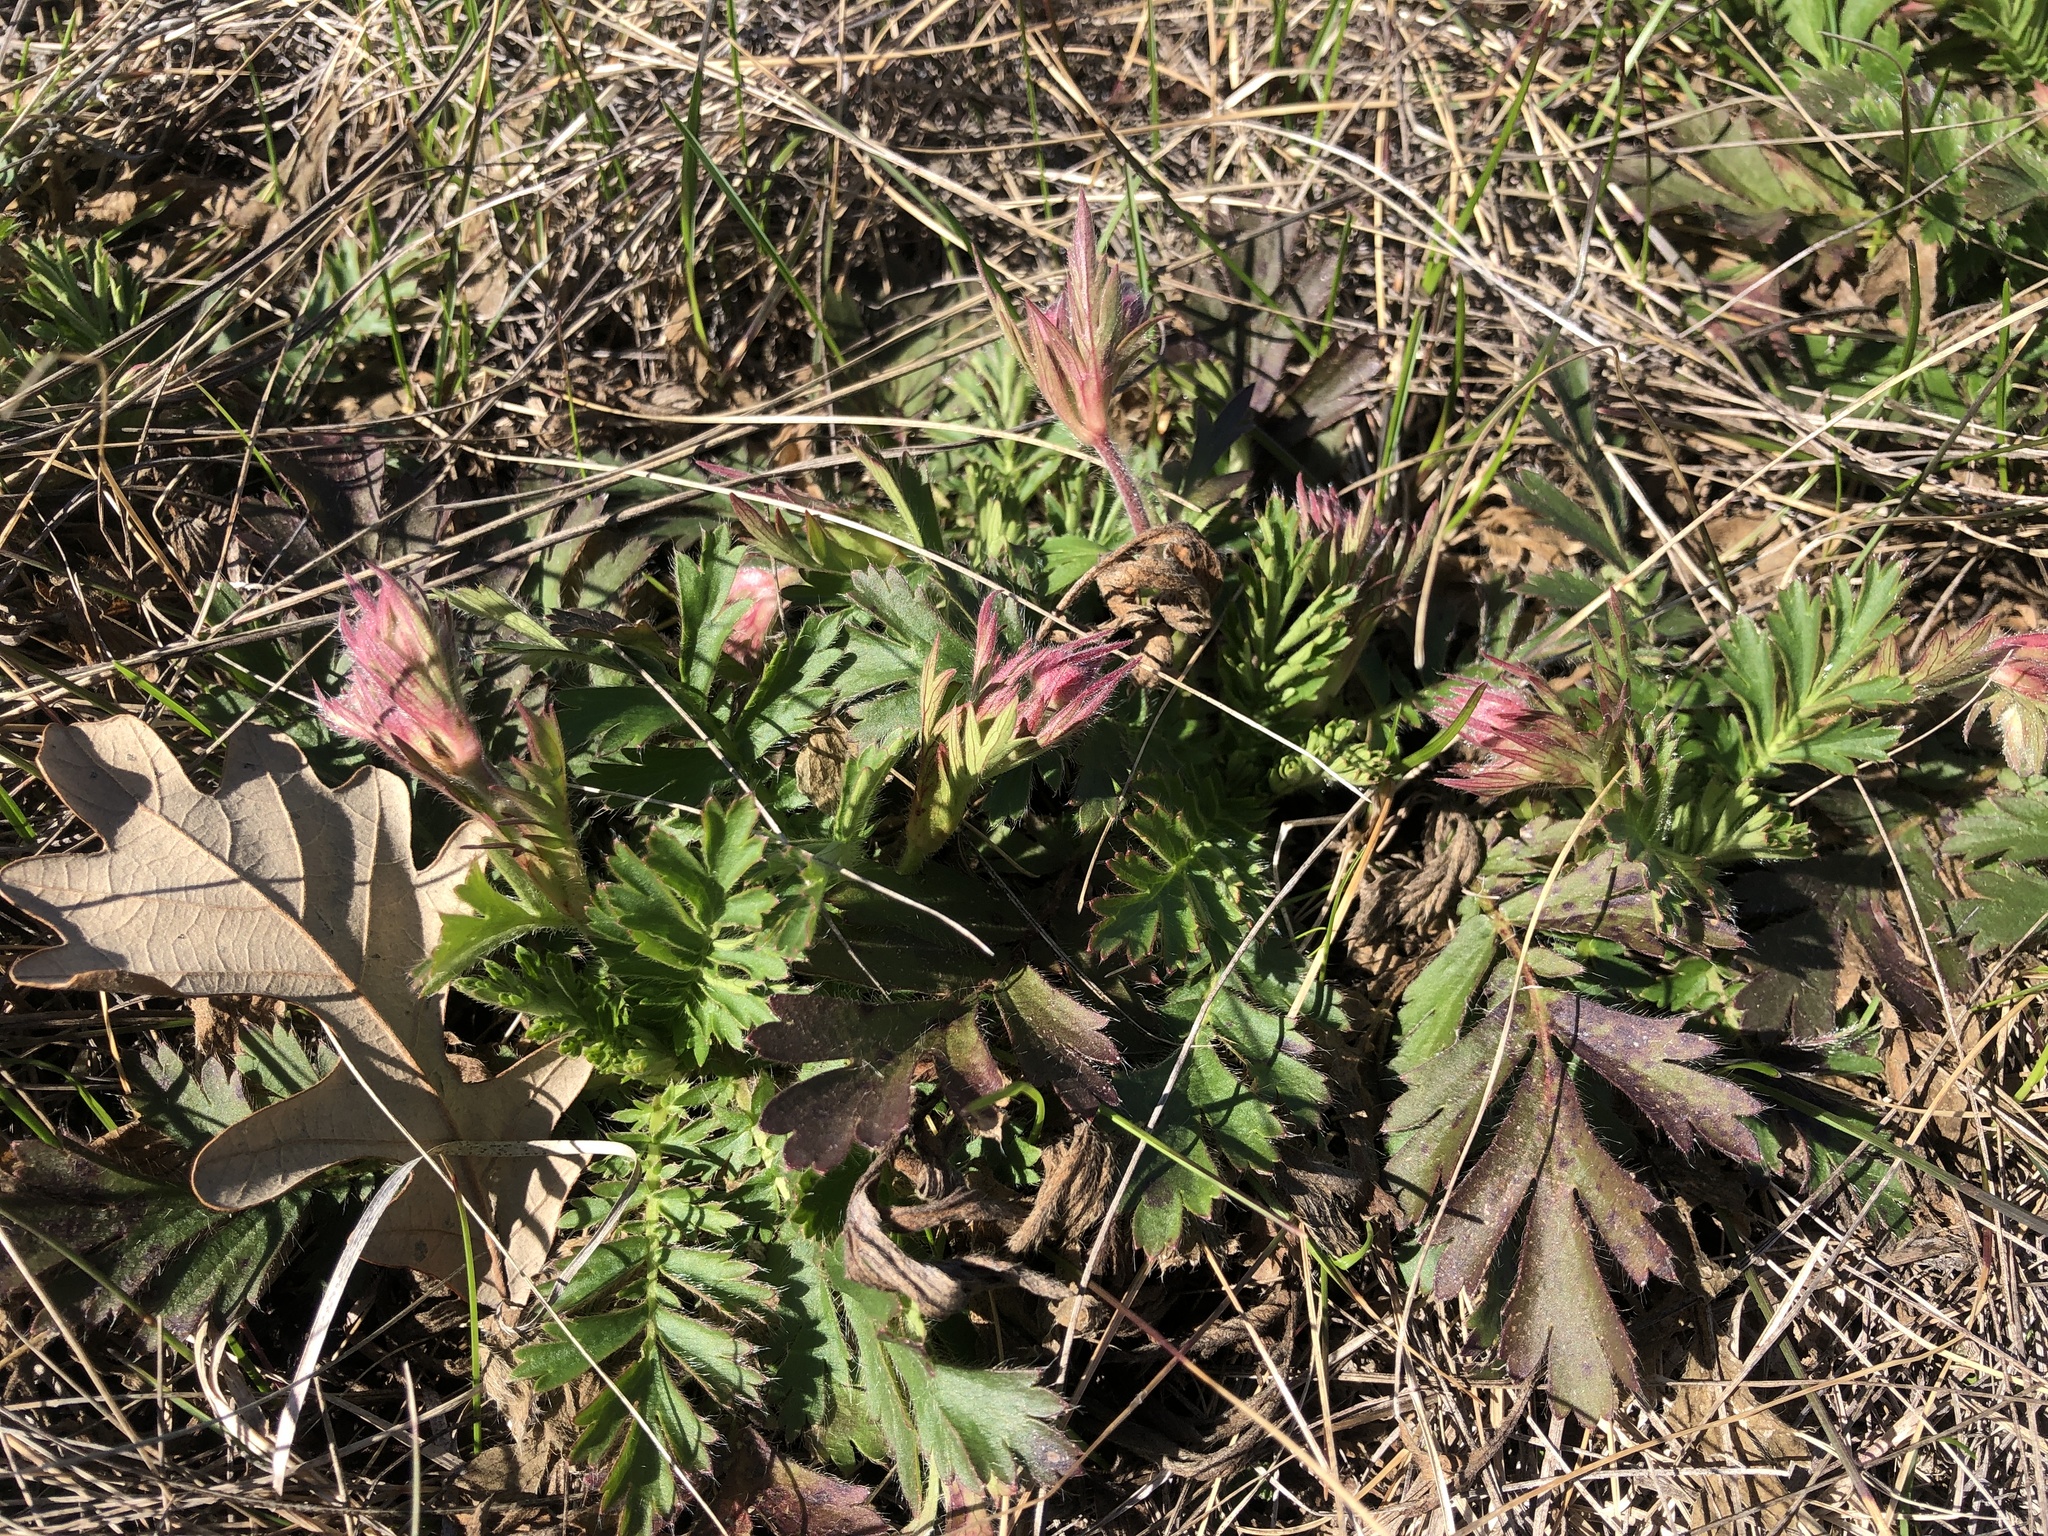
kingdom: Plantae
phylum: Tracheophyta
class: Magnoliopsida
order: Rosales
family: Rosaceae
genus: Geum
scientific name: Geum triflorum
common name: Old man's whiskers
